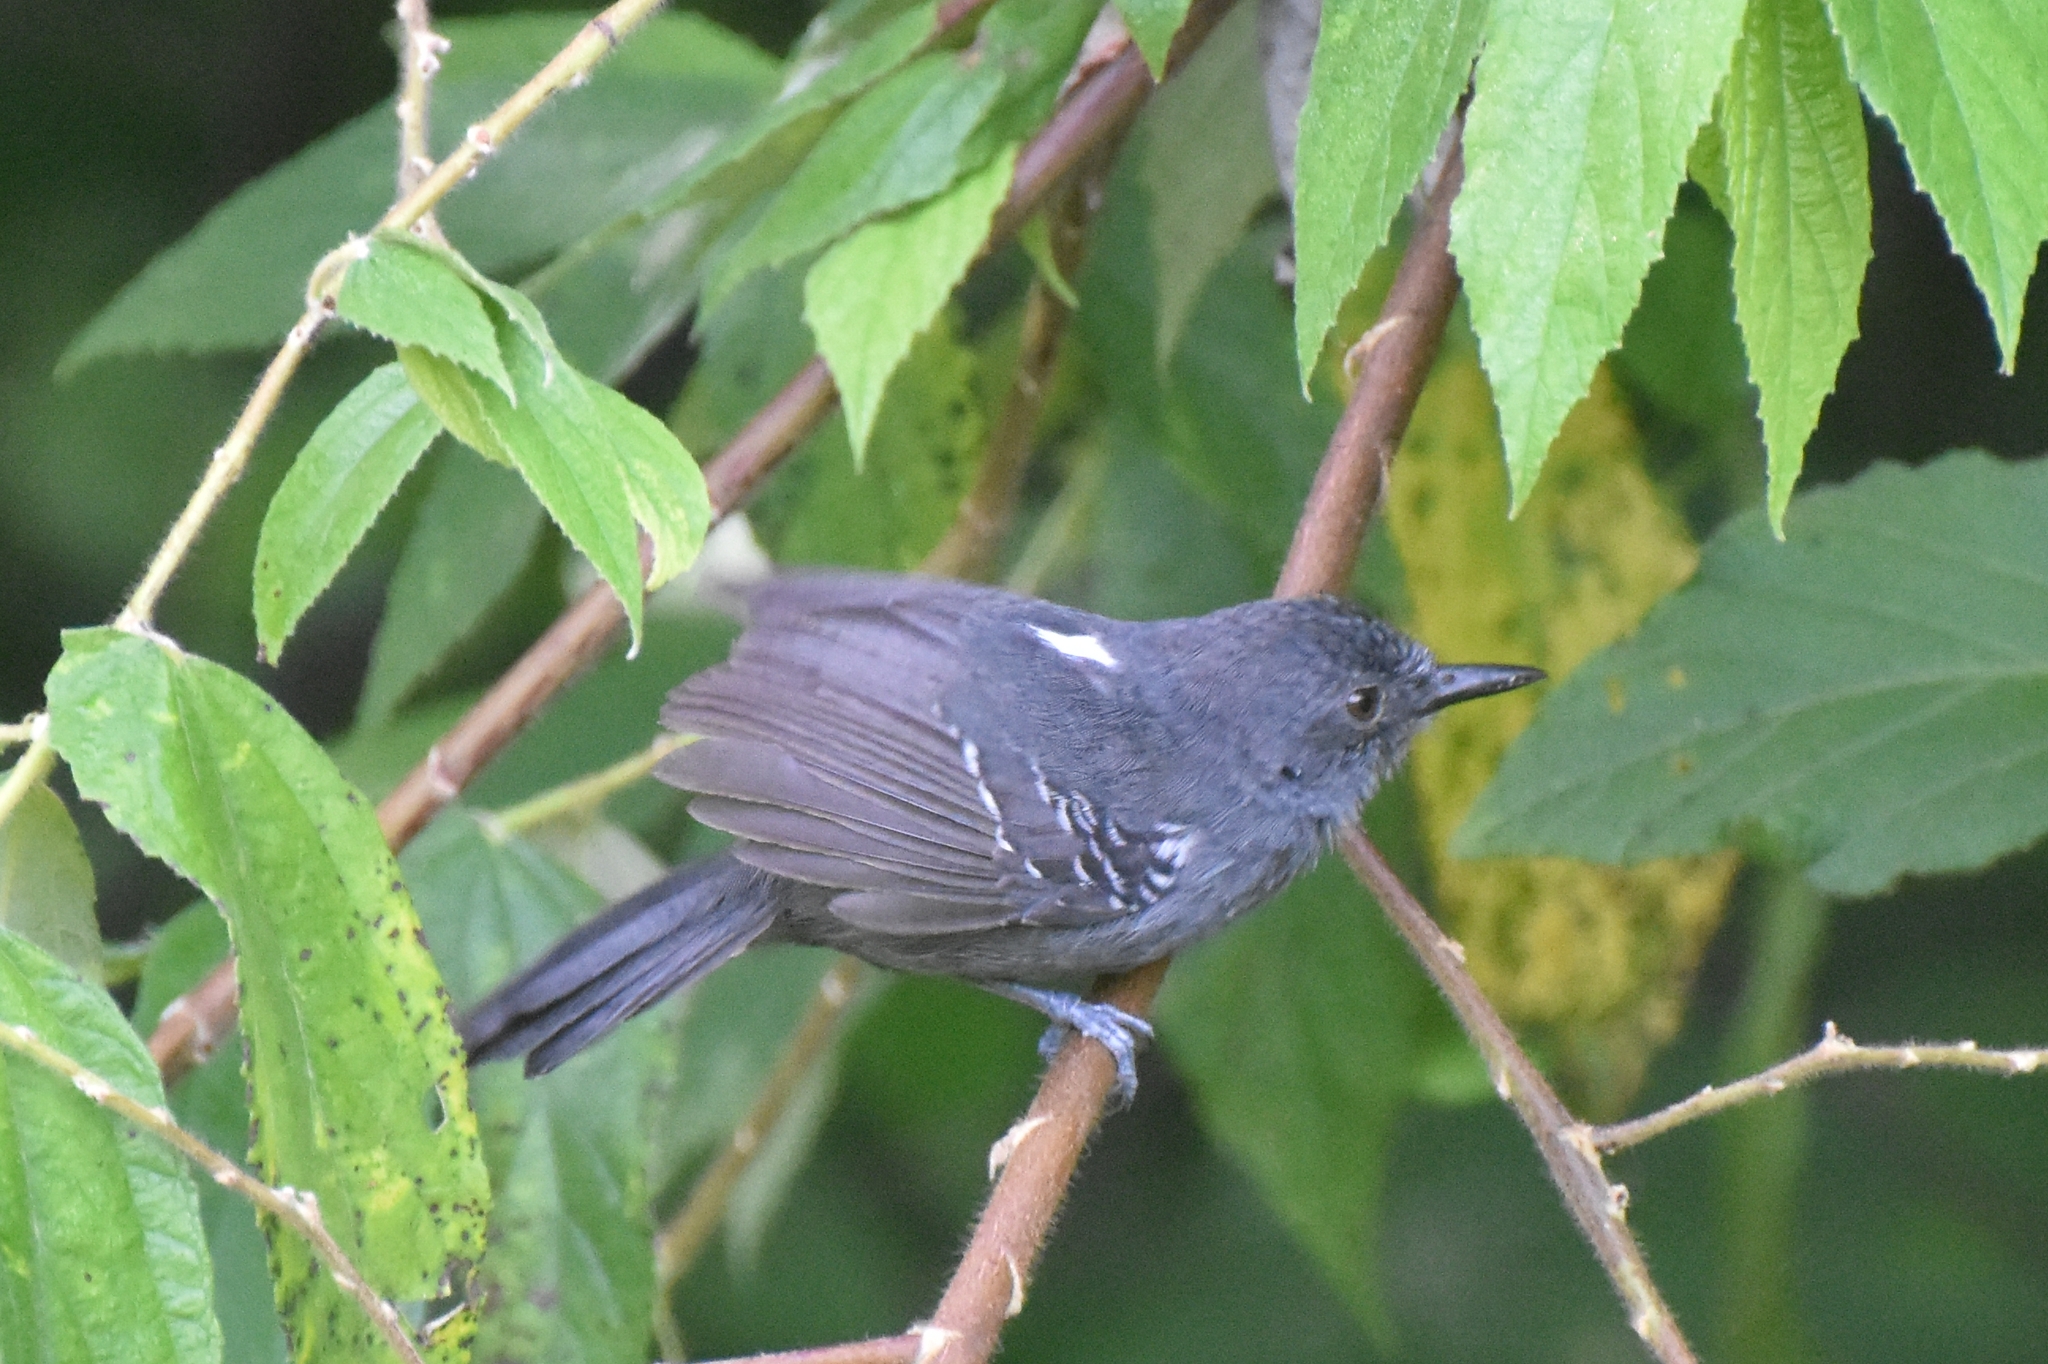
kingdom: Animalia
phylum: Chordata
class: Aves
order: Passeriformes
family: Thamnophilidae
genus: Cercomacra
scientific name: Cercomacra tyrannina
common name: Dusky antbird
